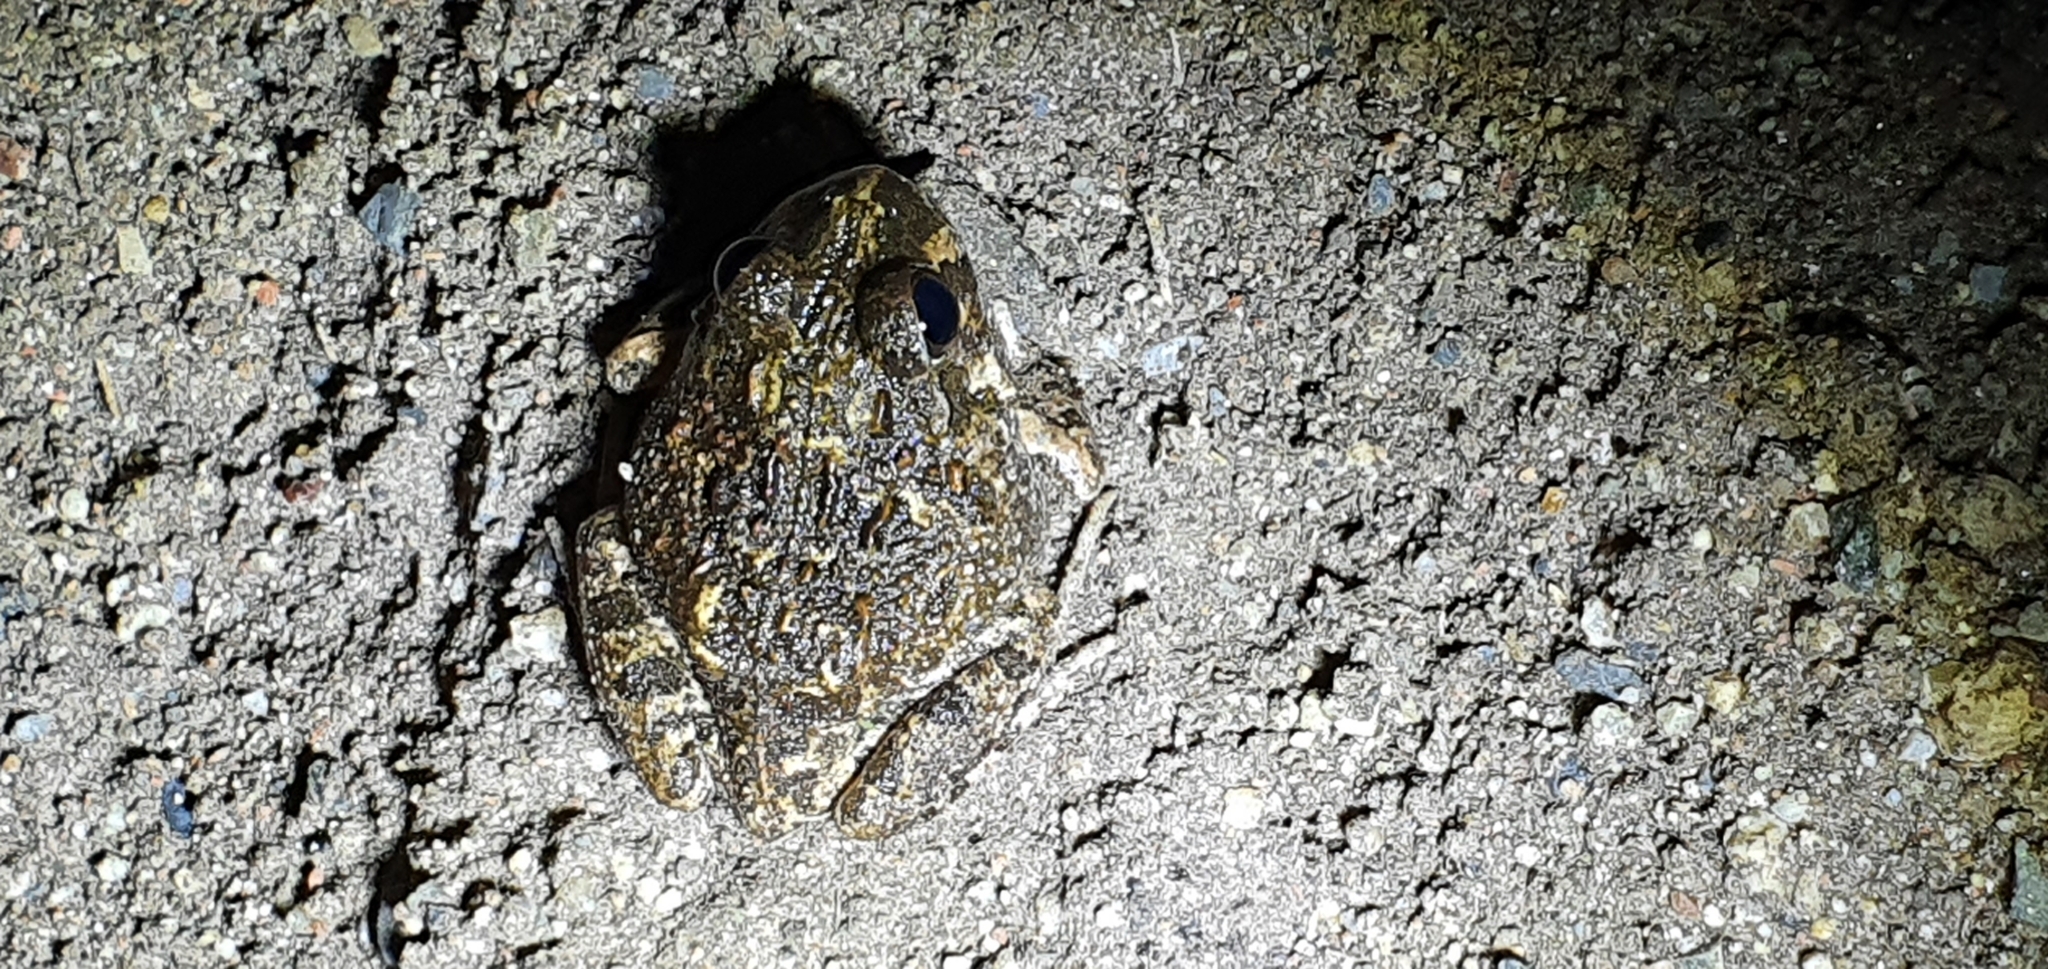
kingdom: Animalia
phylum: Chordata
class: Amphibia
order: Anura
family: Limnodynastidae
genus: Platyplectrum
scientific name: Platyplectrum ornatum
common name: Ornate burrowing frog
